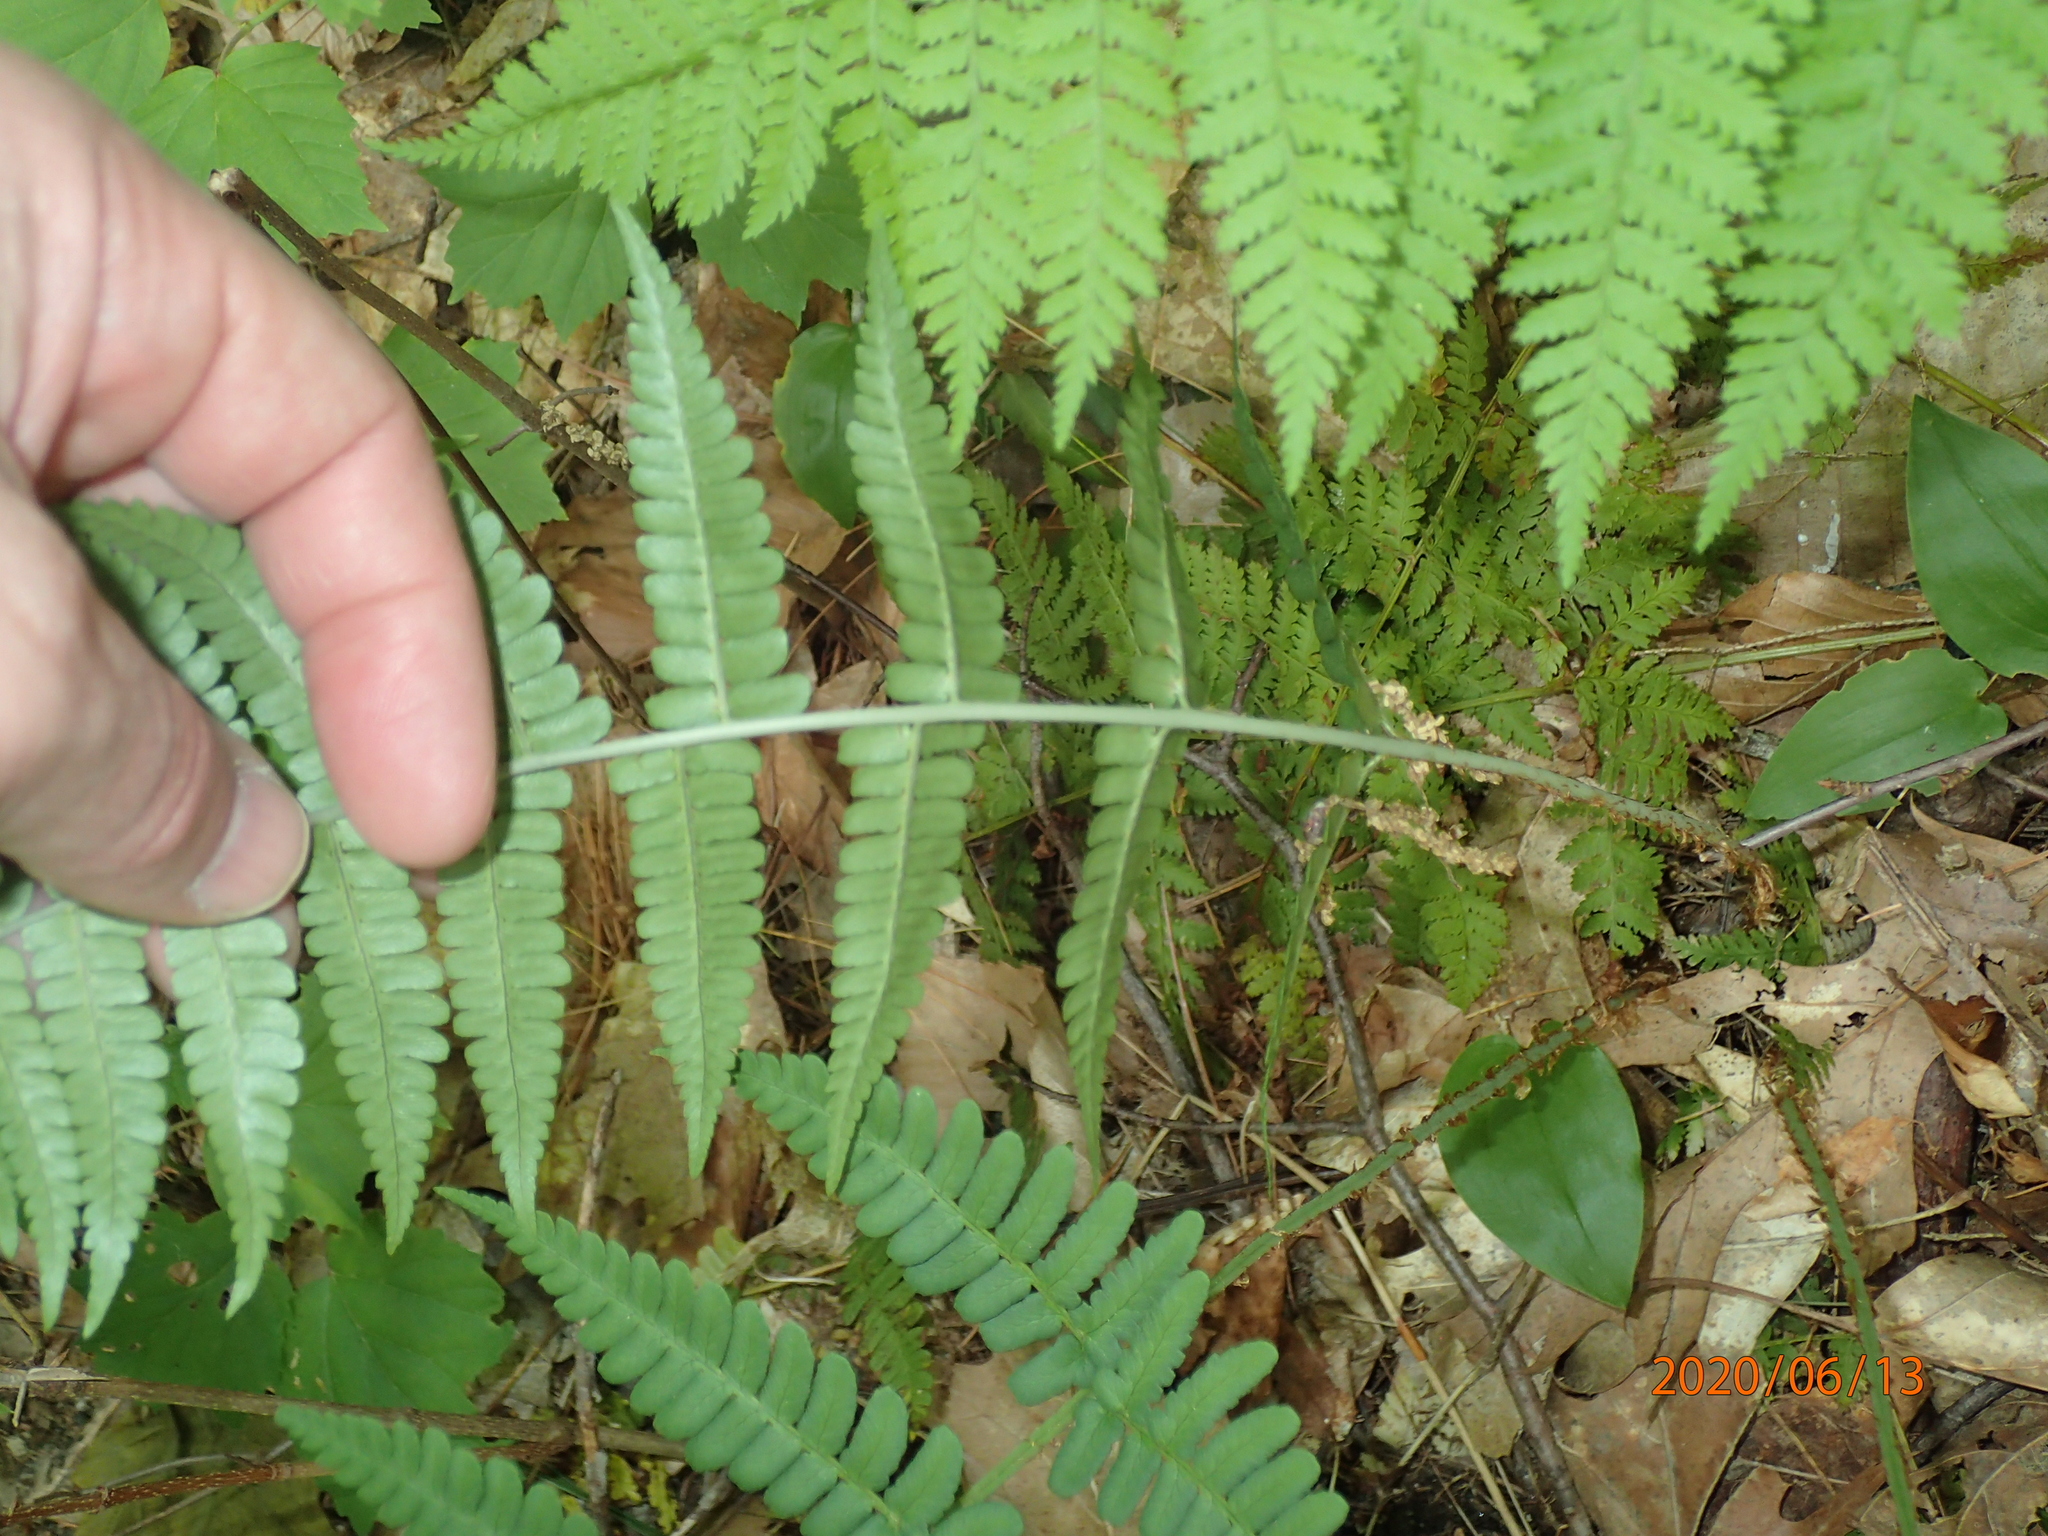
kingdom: Plantae
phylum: Tracheophyta
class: Polypodiopsida
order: Polypodiales
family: Dryopteridaceae
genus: Dryopteris
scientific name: Dryopteris marginalis
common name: Marginal wood fern
